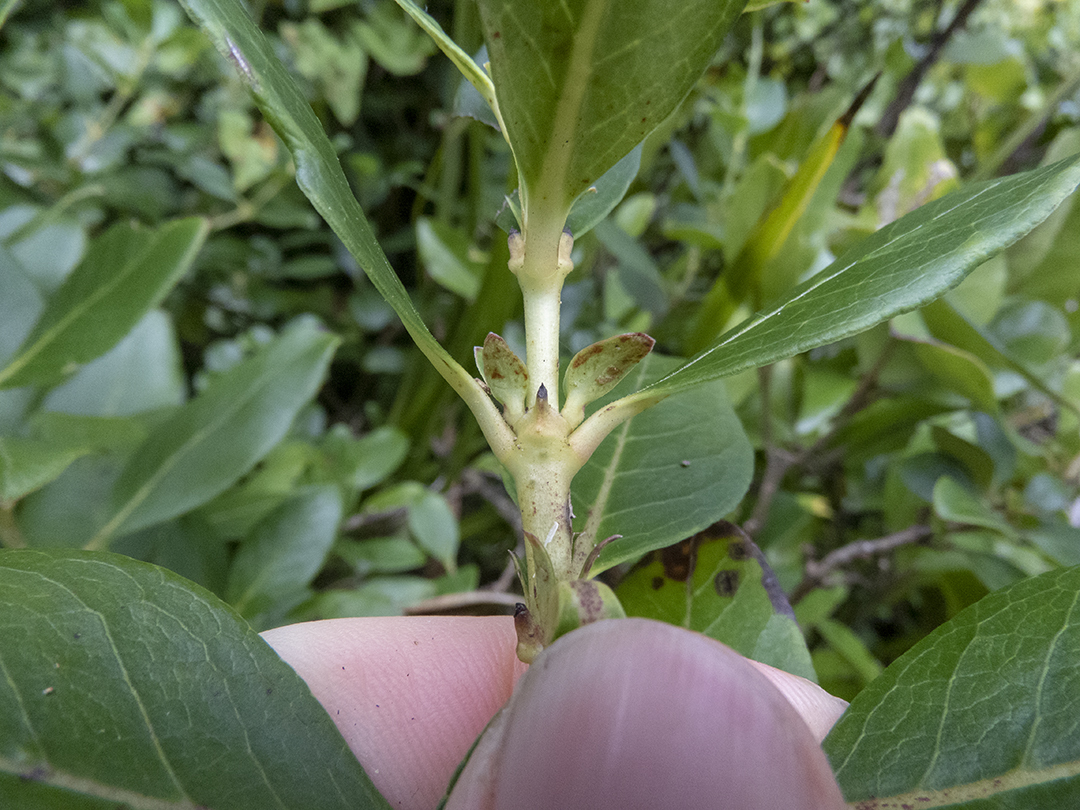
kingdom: Plantae
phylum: Tracheophyta
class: Magnoliopsida
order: Gentianales
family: Rubiaceae
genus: Coprosma
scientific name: Coprosma robusta
